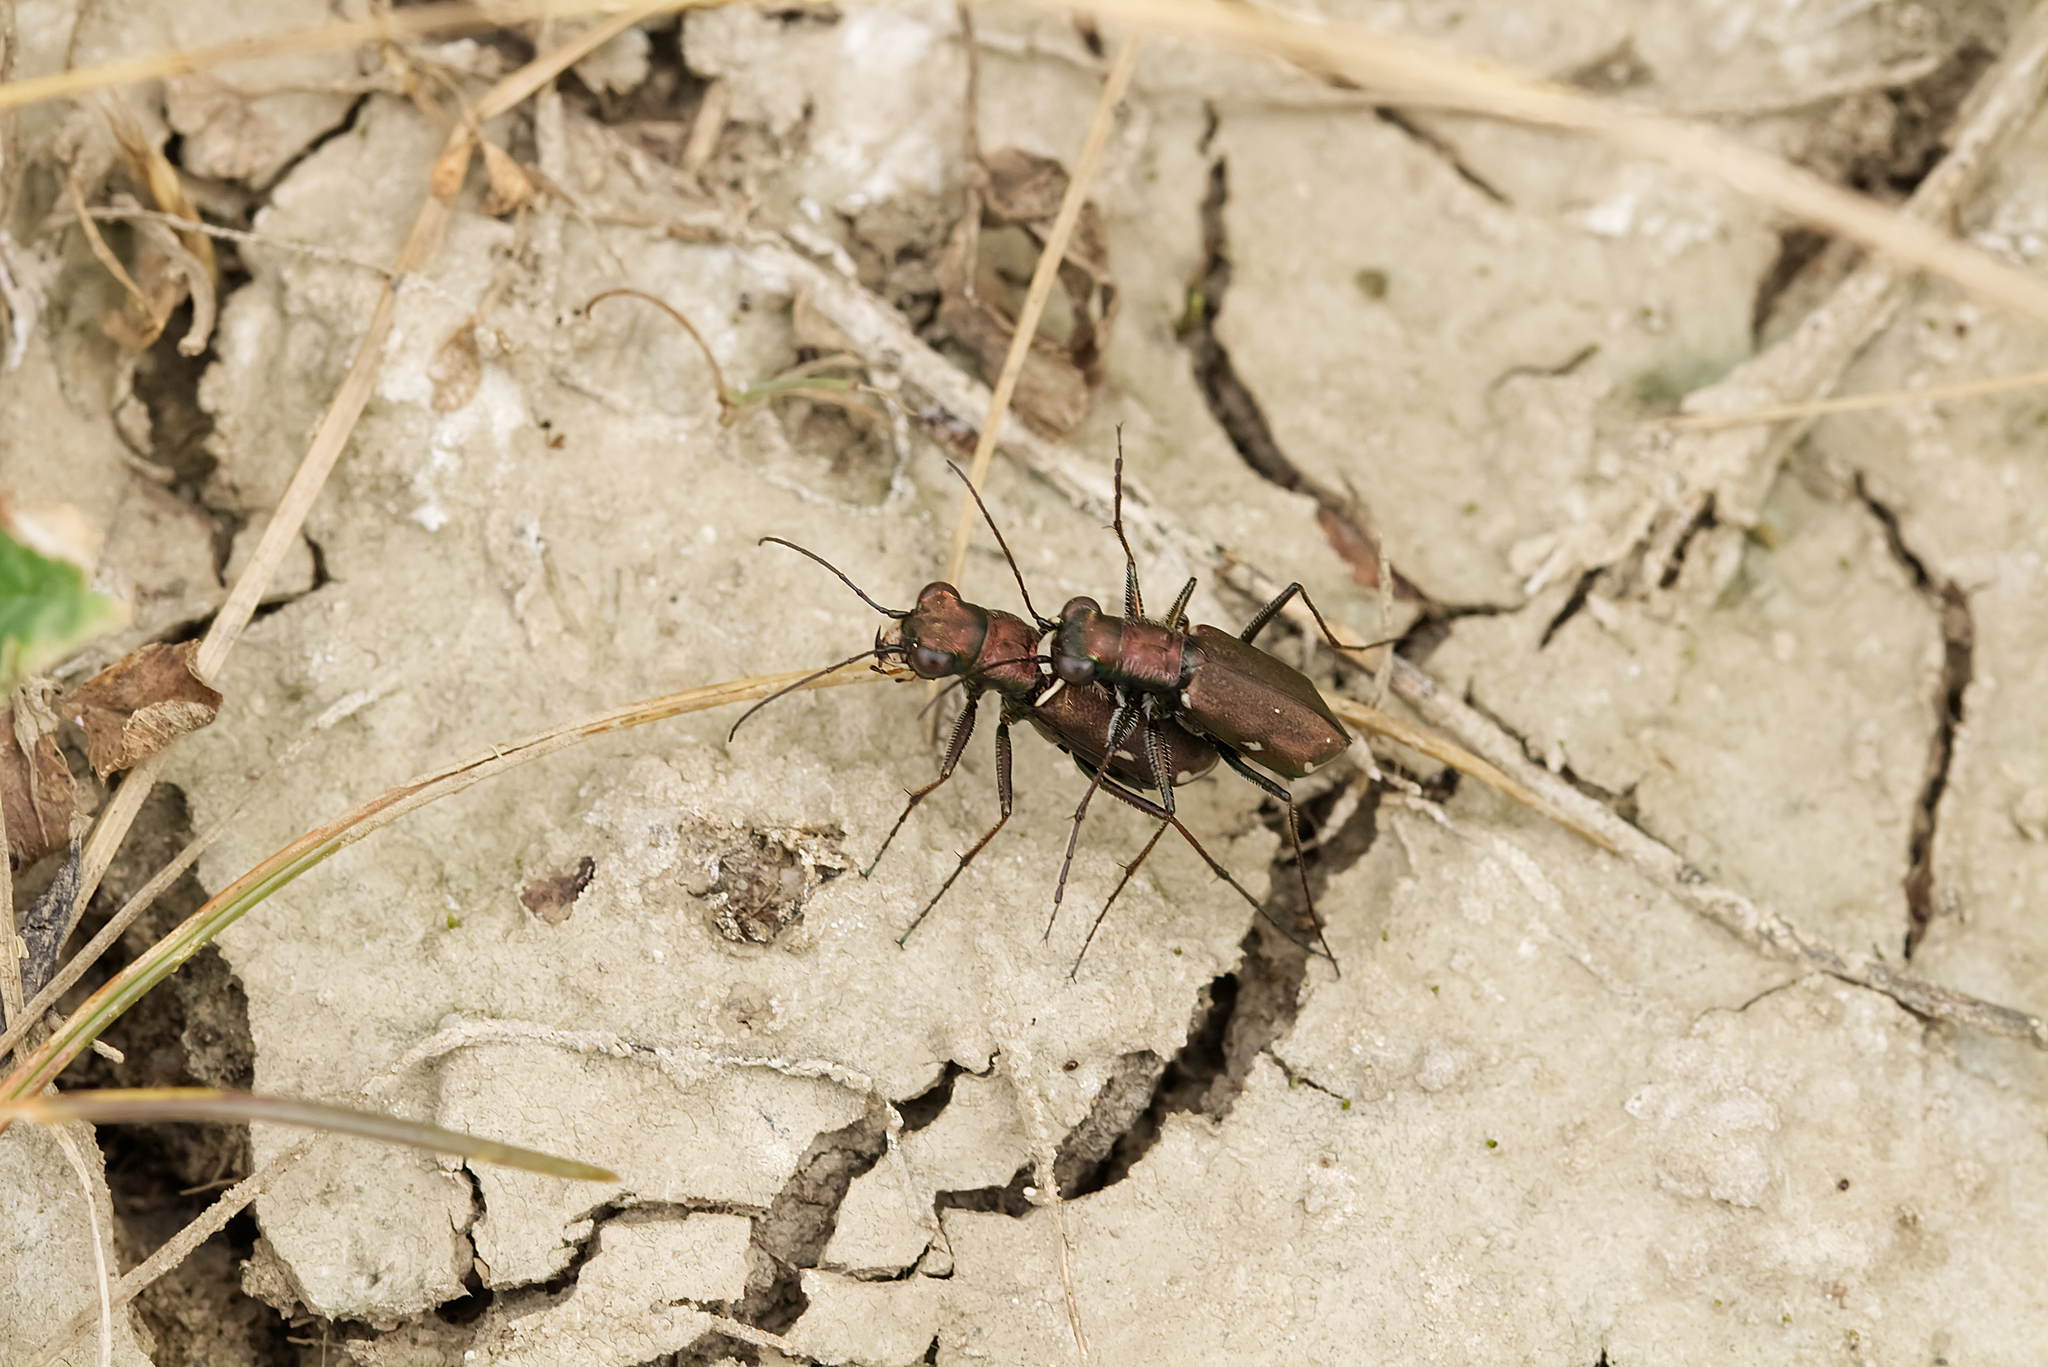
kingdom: Animalia
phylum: Arthropoda
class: Insecta
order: Coleoptera
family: Carabidae
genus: Cylindera
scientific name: Cylindera germanica
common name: Cliff tiger beetle
